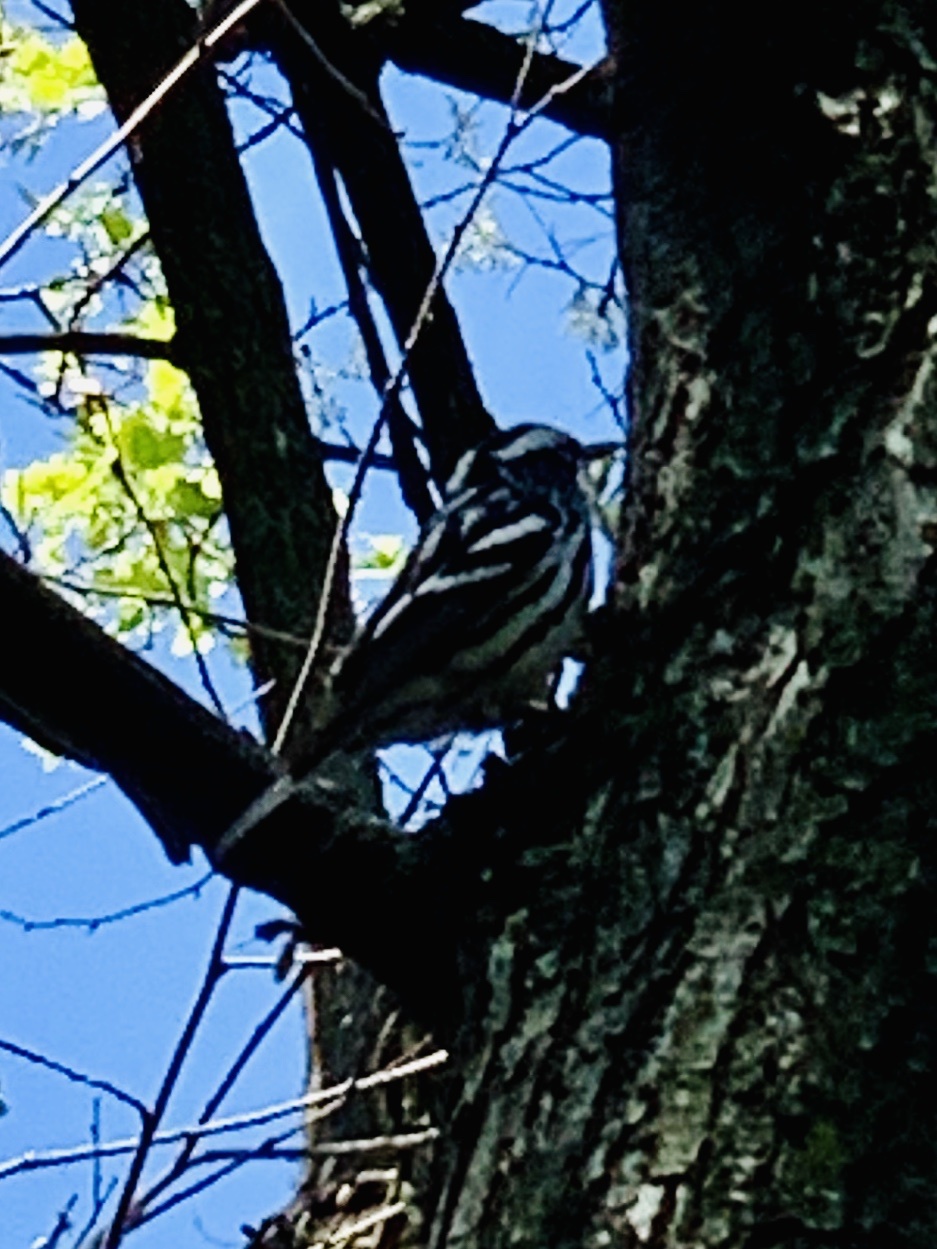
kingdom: Animalia
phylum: Chordata
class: Aves
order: Passeriformes
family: Parulidae
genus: Mniotilta
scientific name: Mniotilta varia
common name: Black-and-white warbler
